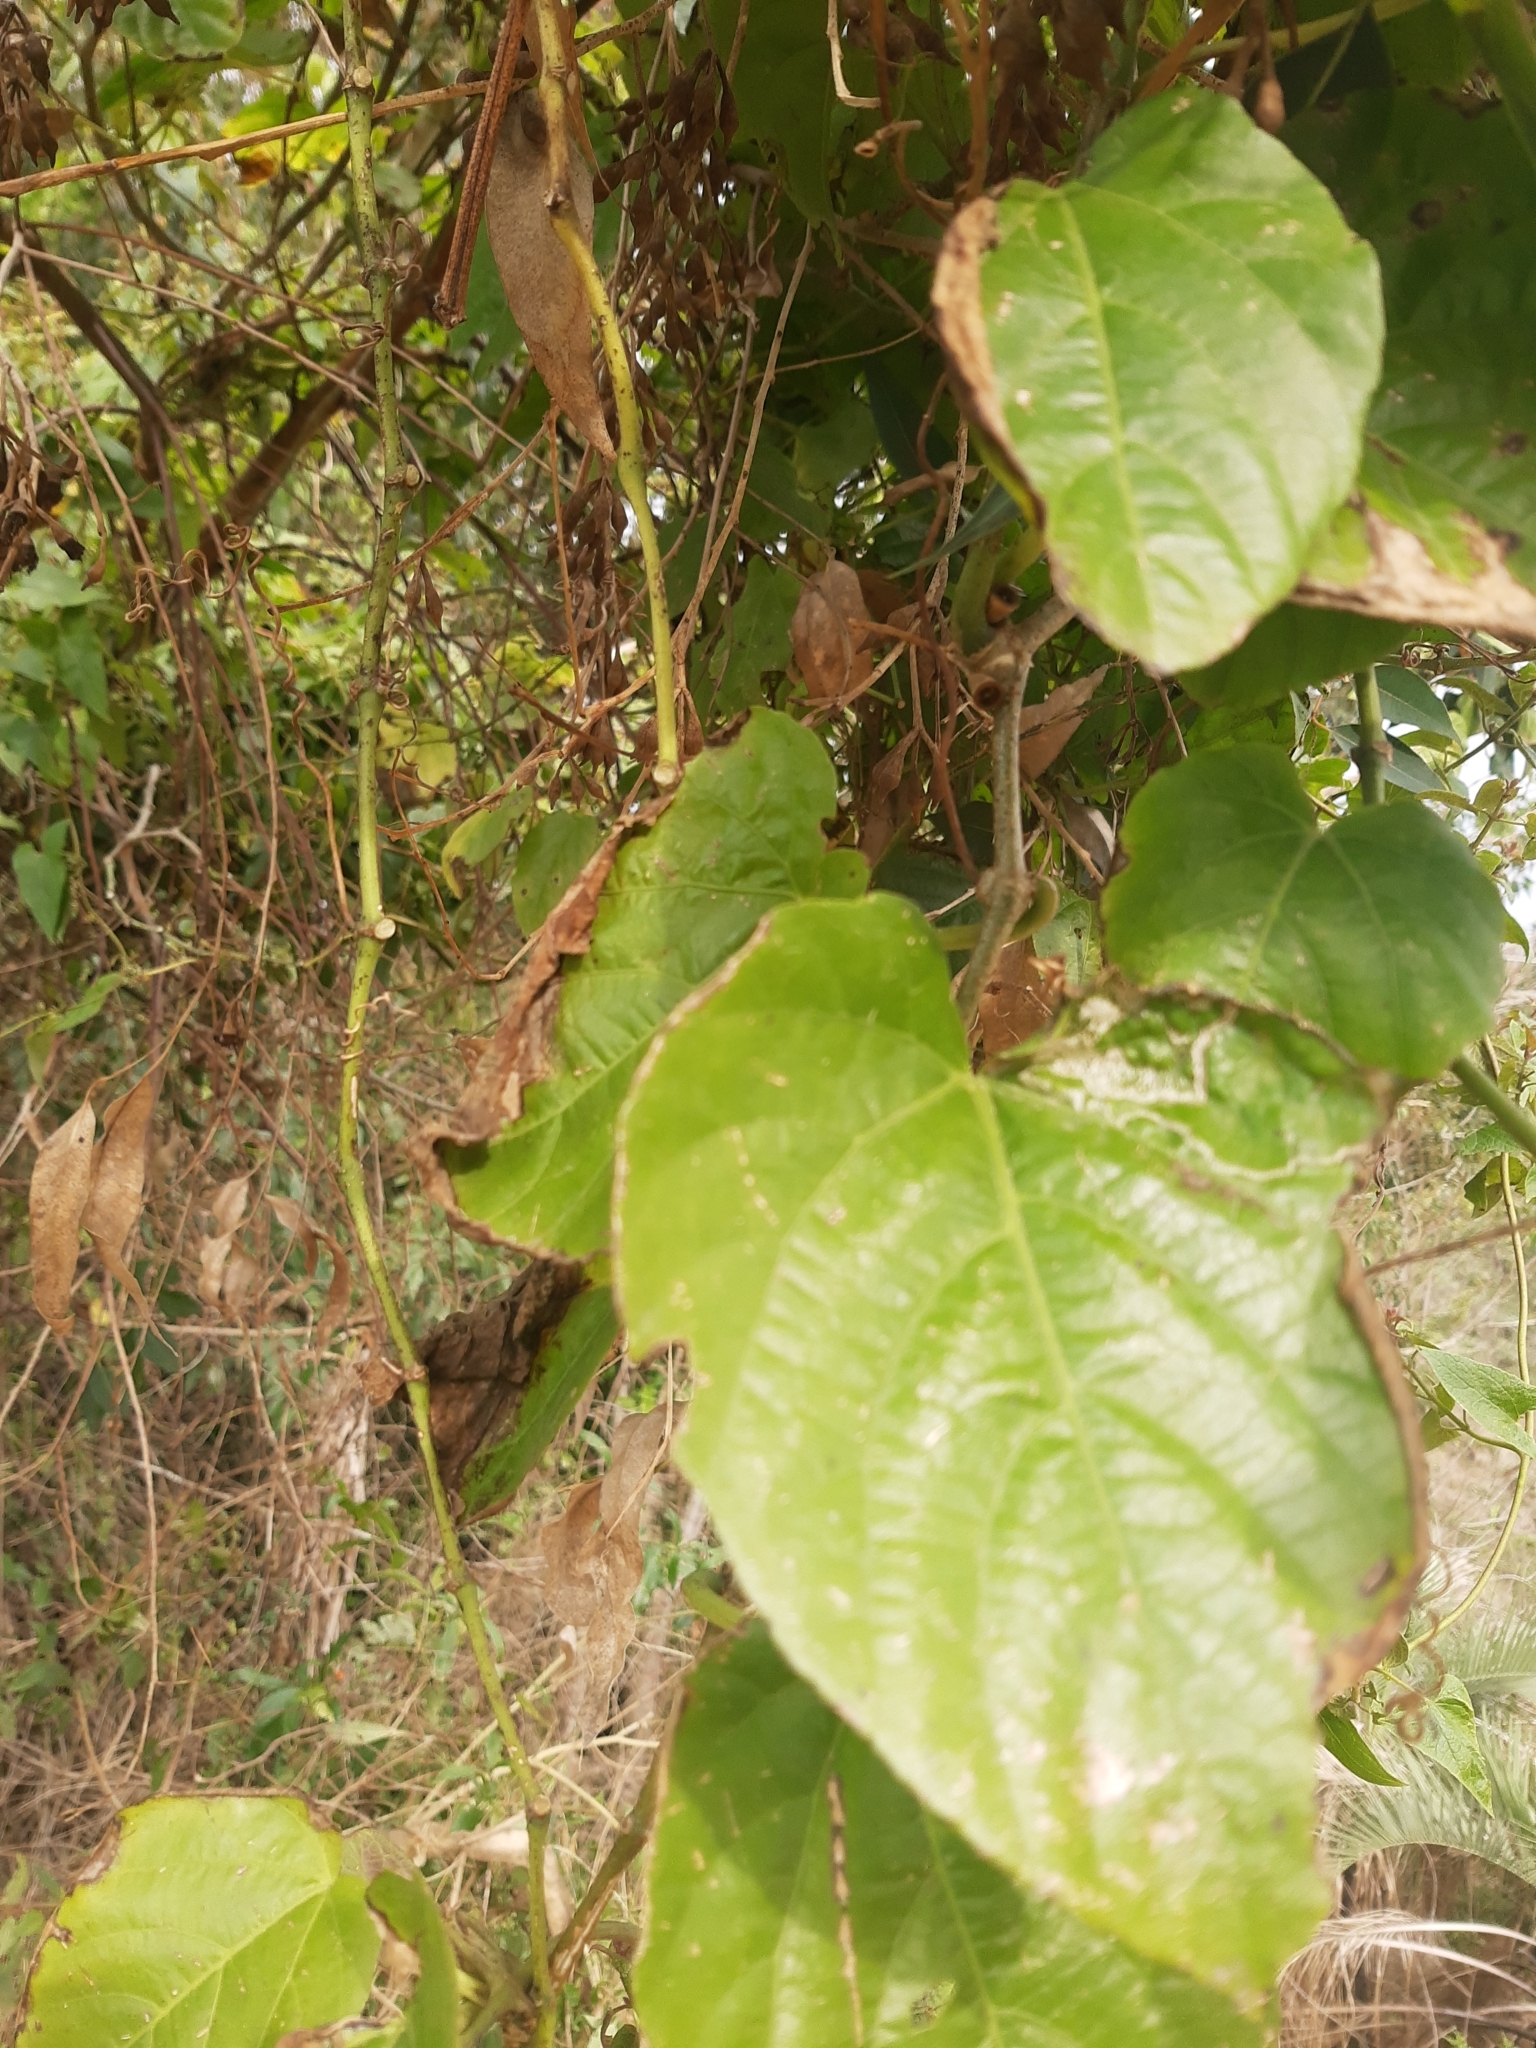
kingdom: Plantae
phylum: Tracheophyta
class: Magnoliopsida
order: Vitales
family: Vitaceae
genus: Cissus
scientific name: Cissus verticillata
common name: Princess vine
